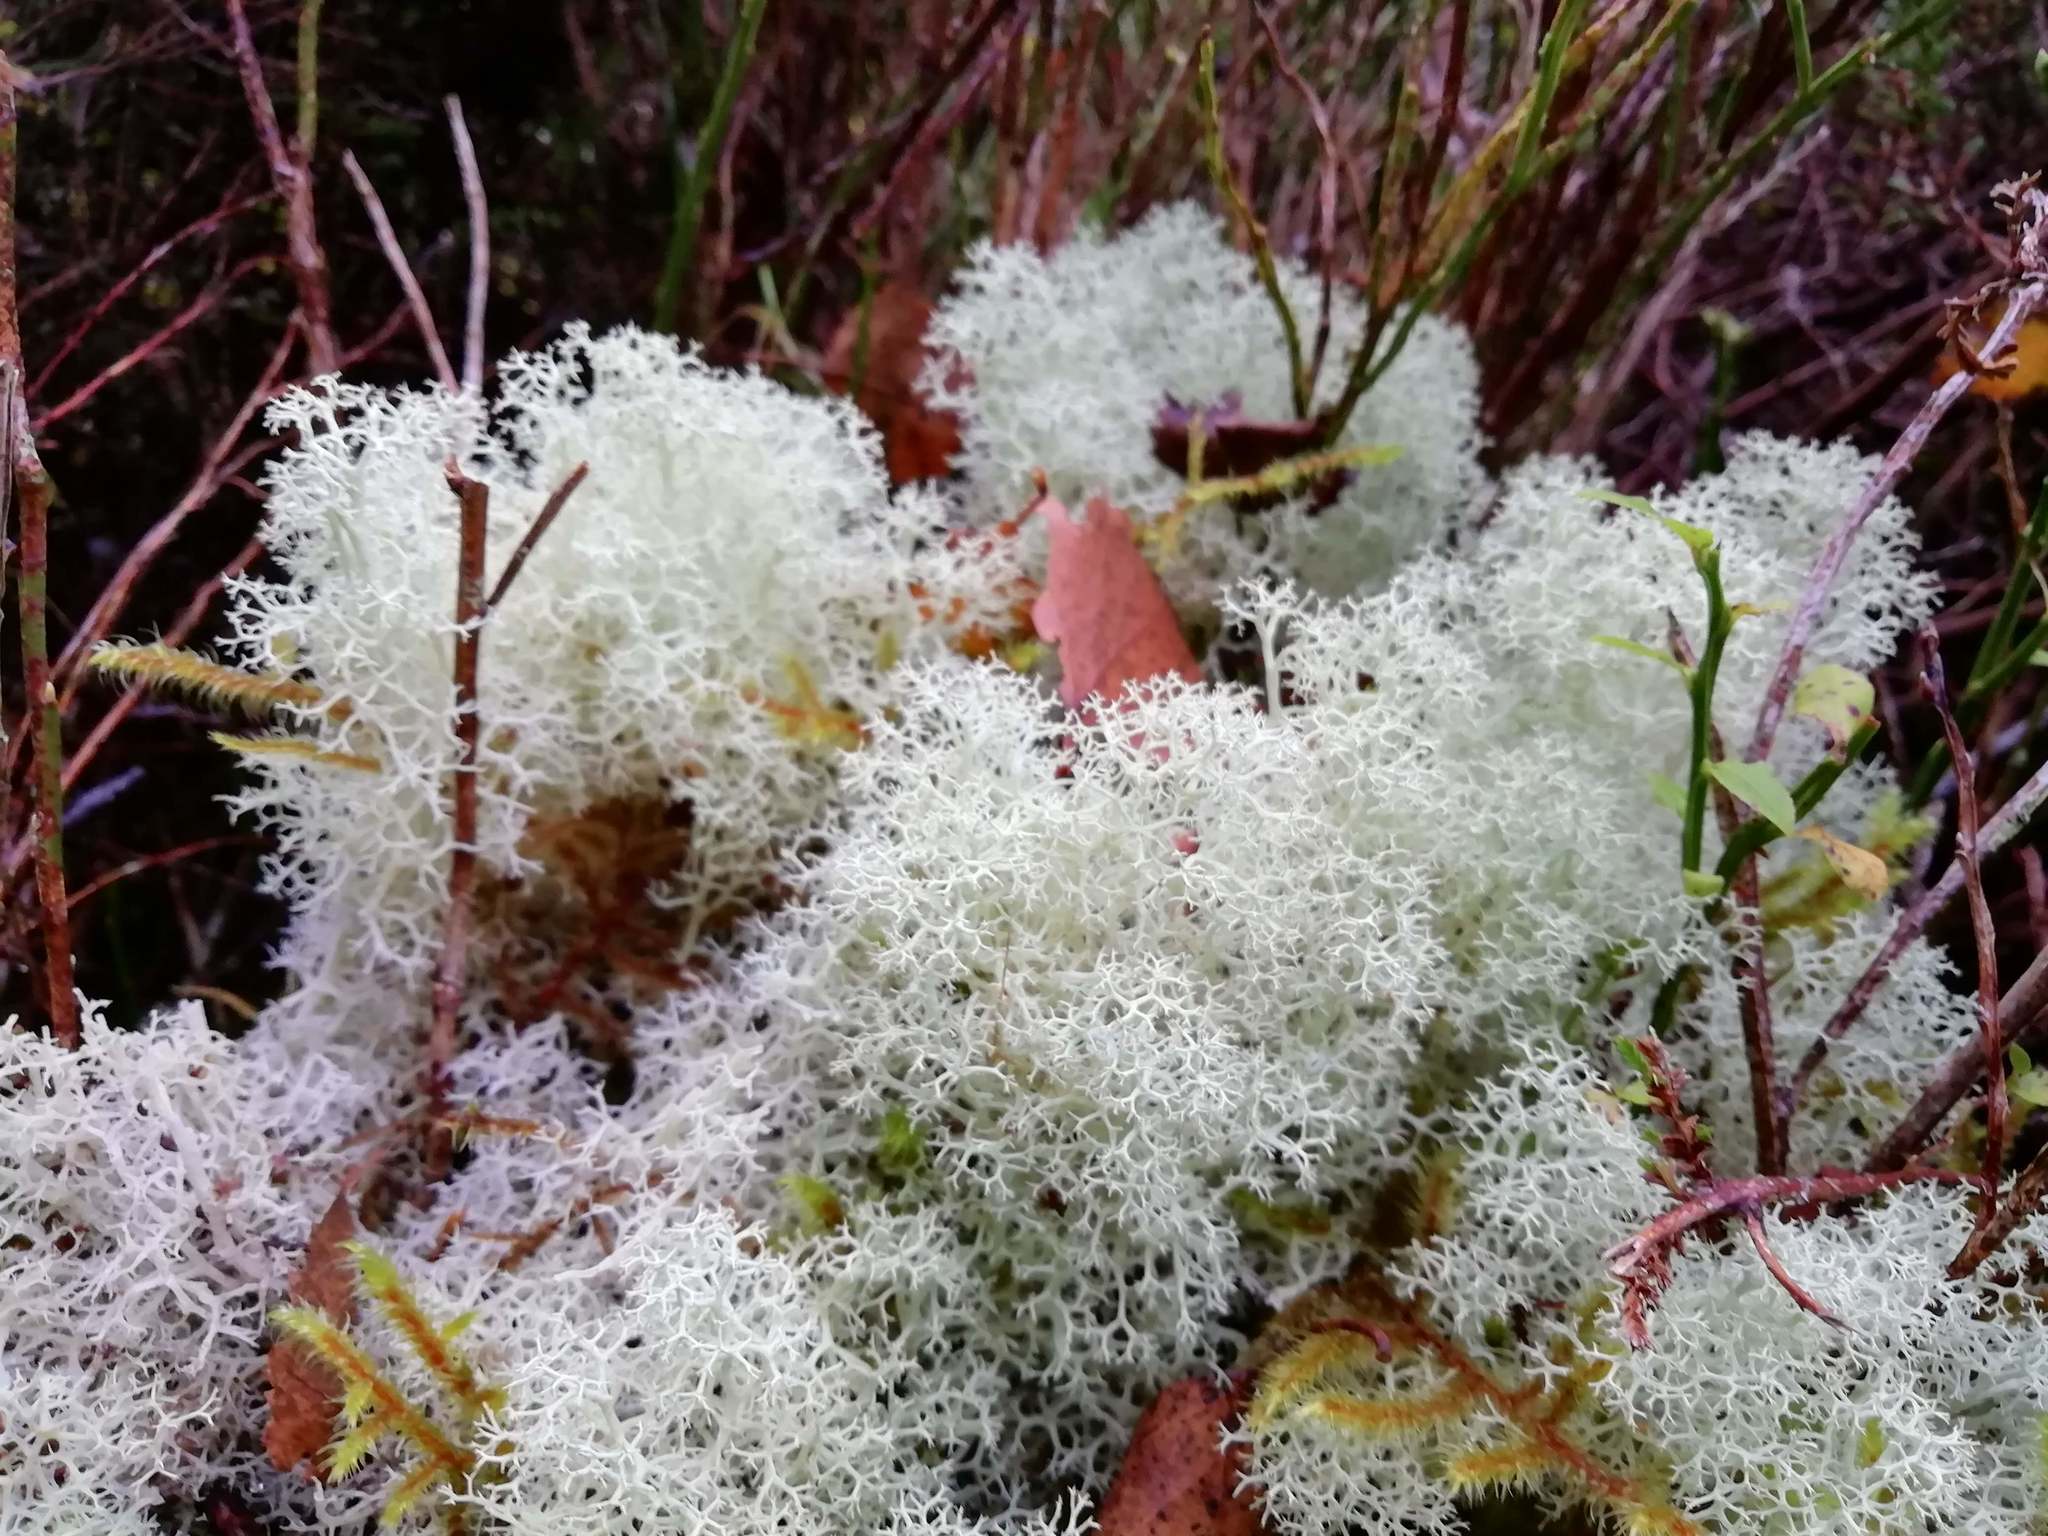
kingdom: Fungi
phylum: Ascomycota
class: Lecanoromycetes
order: Lecanorales
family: Cladoniaceae
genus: Cladonia
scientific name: Cladonia portentosa
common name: Reindeer lichen
